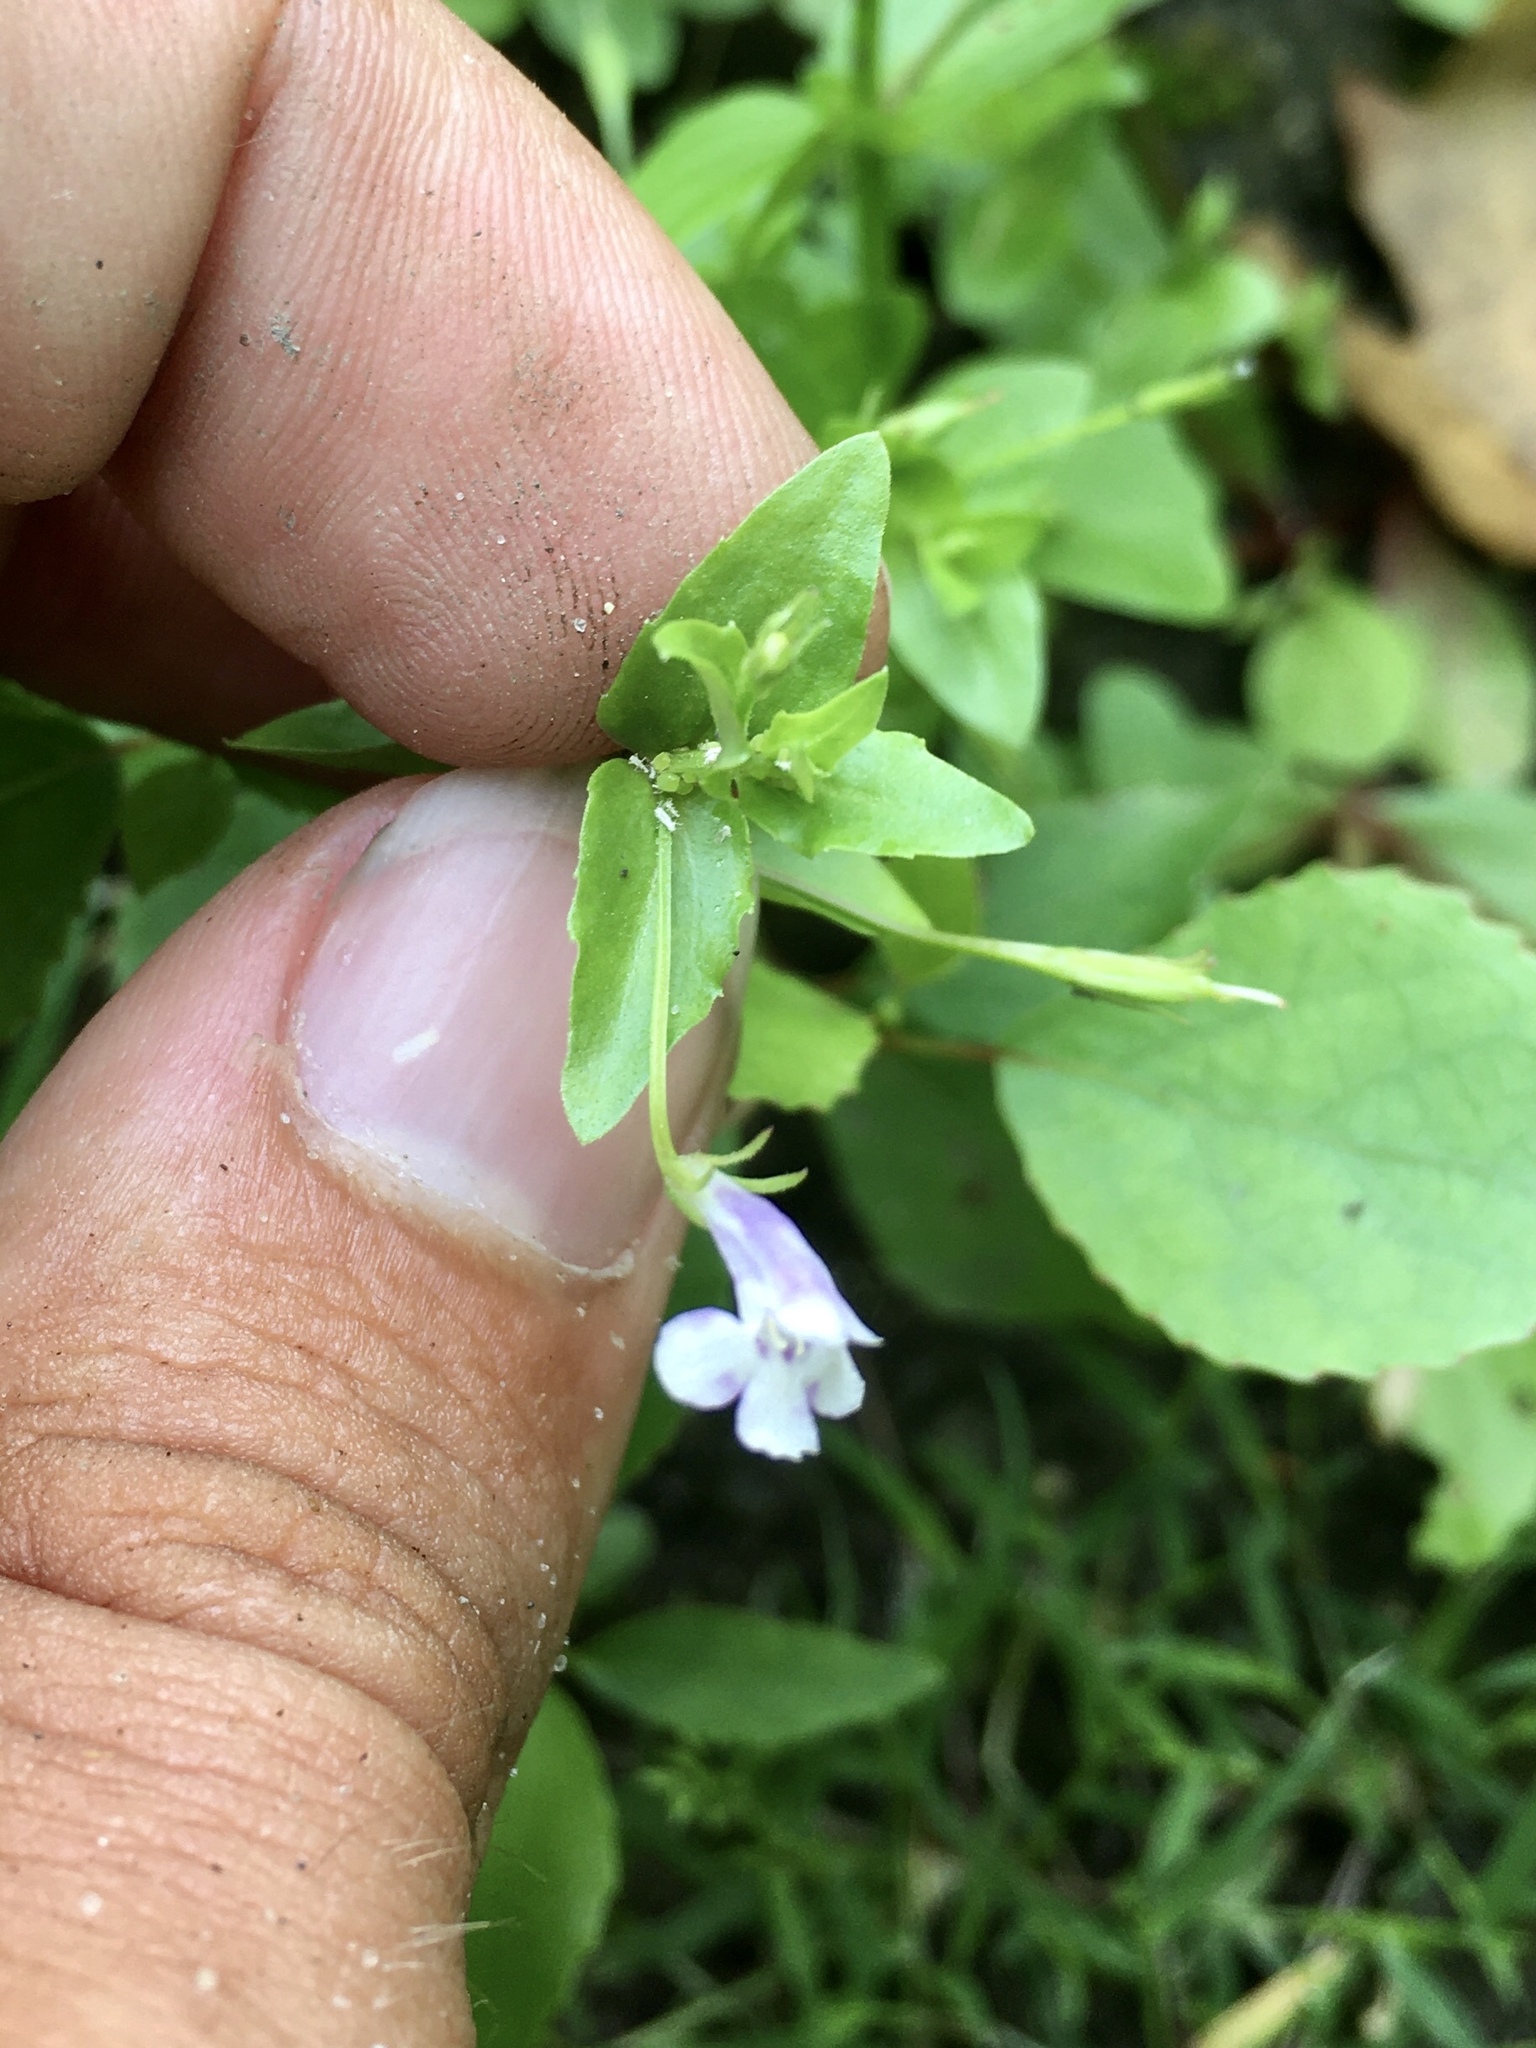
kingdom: Plantae
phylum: Tracheophyta
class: Magnoliopsida
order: Lamiales
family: Linderniaceae
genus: Lindernia
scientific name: Lindernia dubia
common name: Annual false pimpernel
